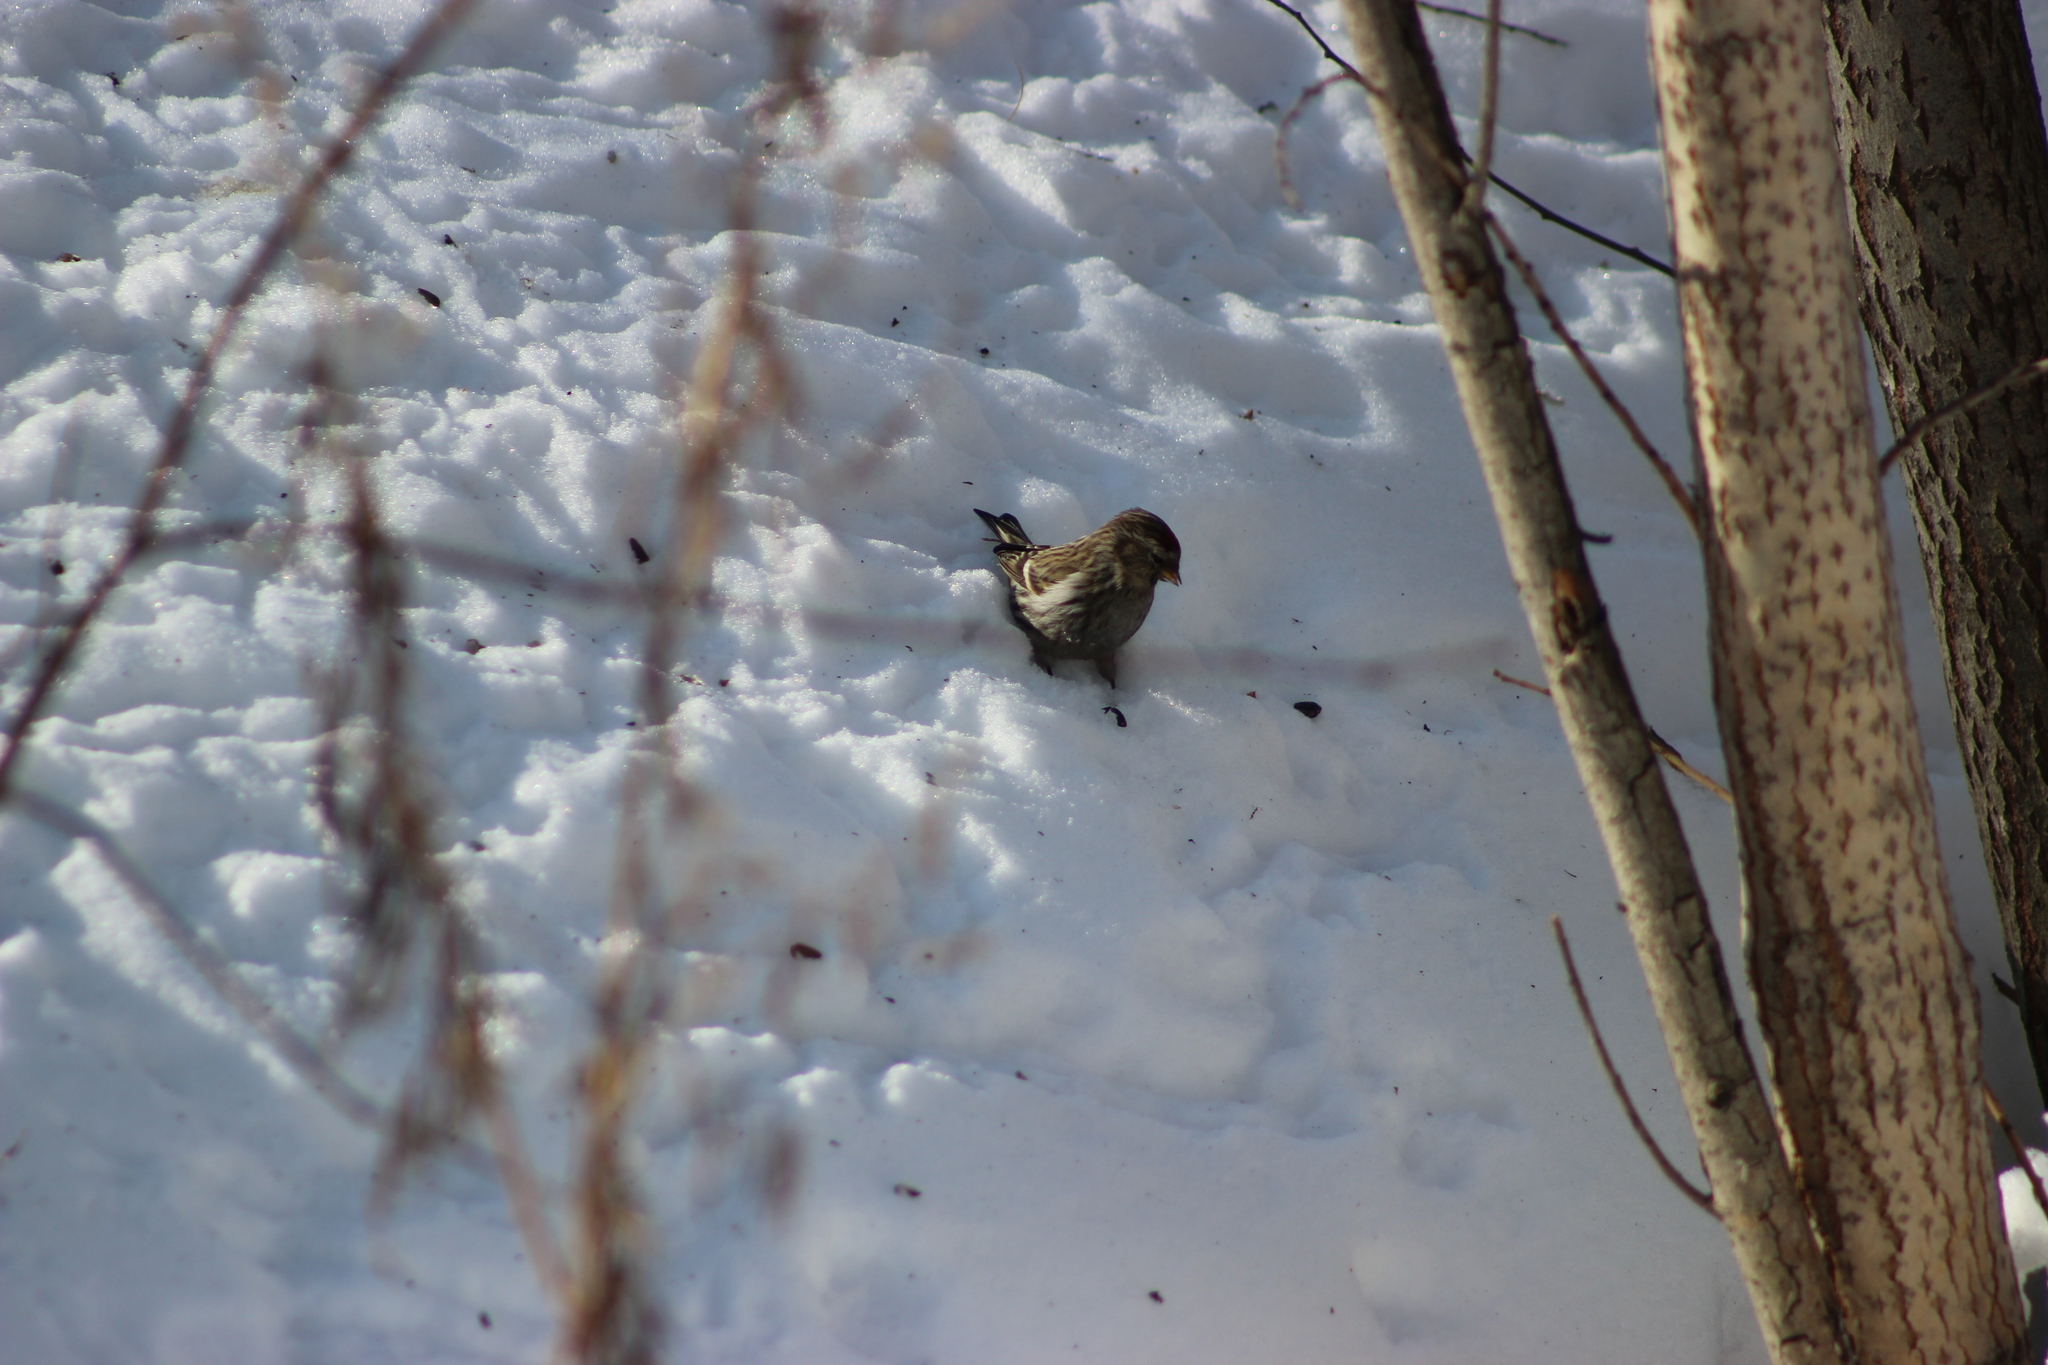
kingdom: Animalia
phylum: Chordata
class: Aves
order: Passeriformes
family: Fringillidae
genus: Acanthis
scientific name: Acanthis flammea
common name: Common redpoll
